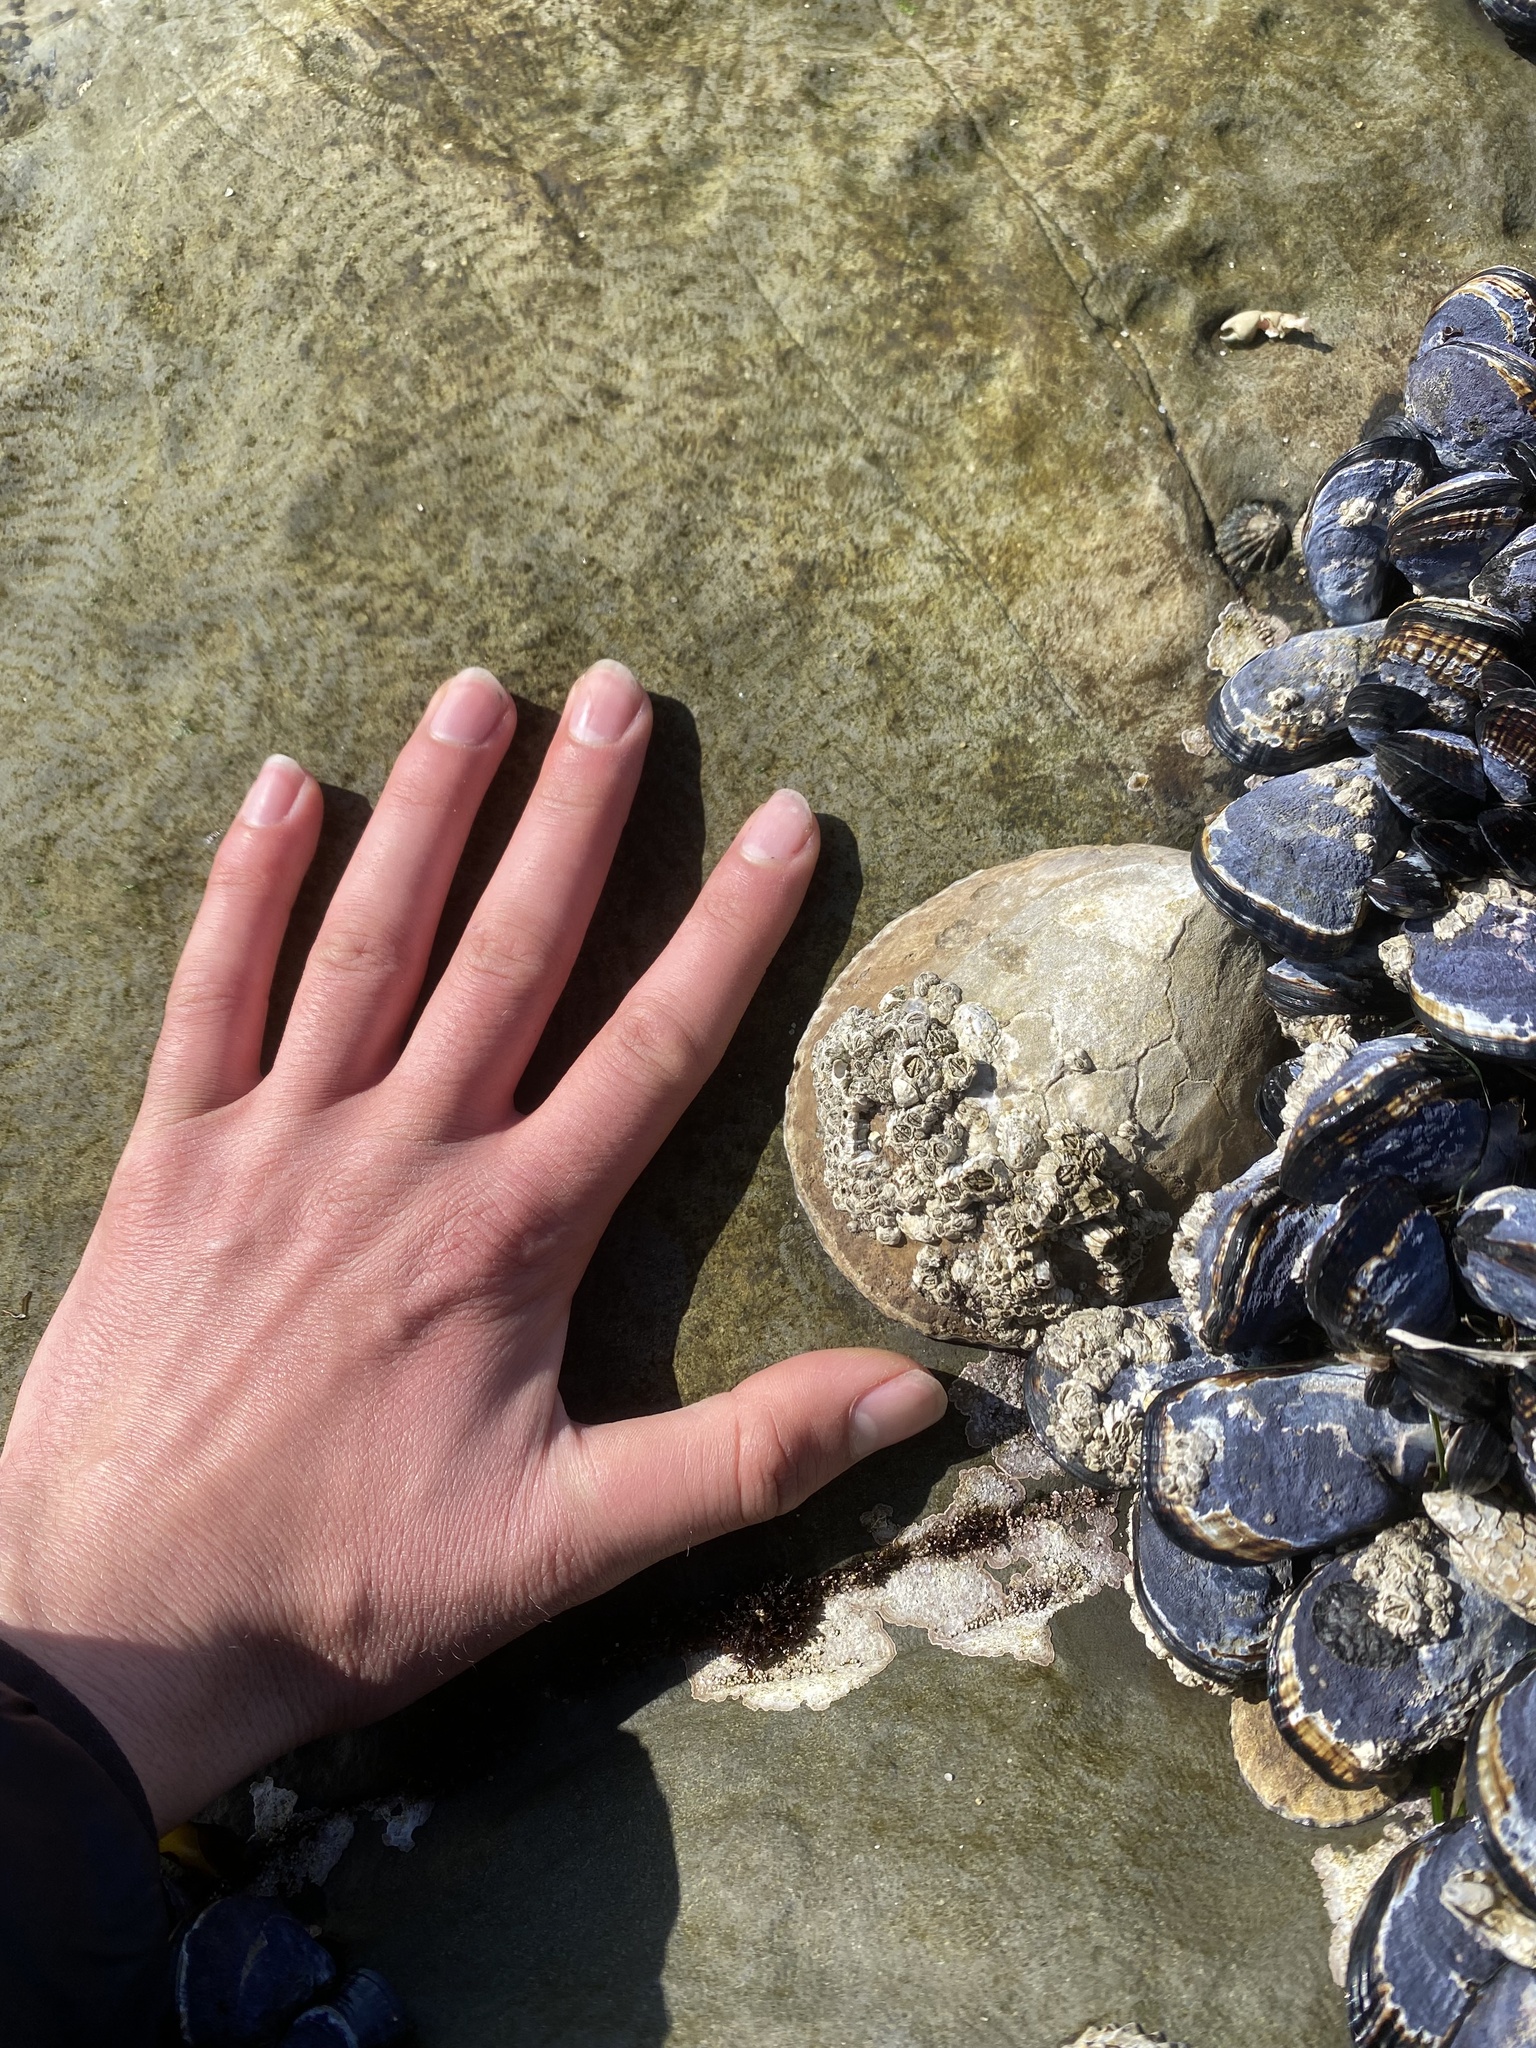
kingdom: Animalia
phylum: Mollusca
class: Gastropoda
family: Lottiidae
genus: Lottia
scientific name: Lottia gigantea
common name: Owl limpet
